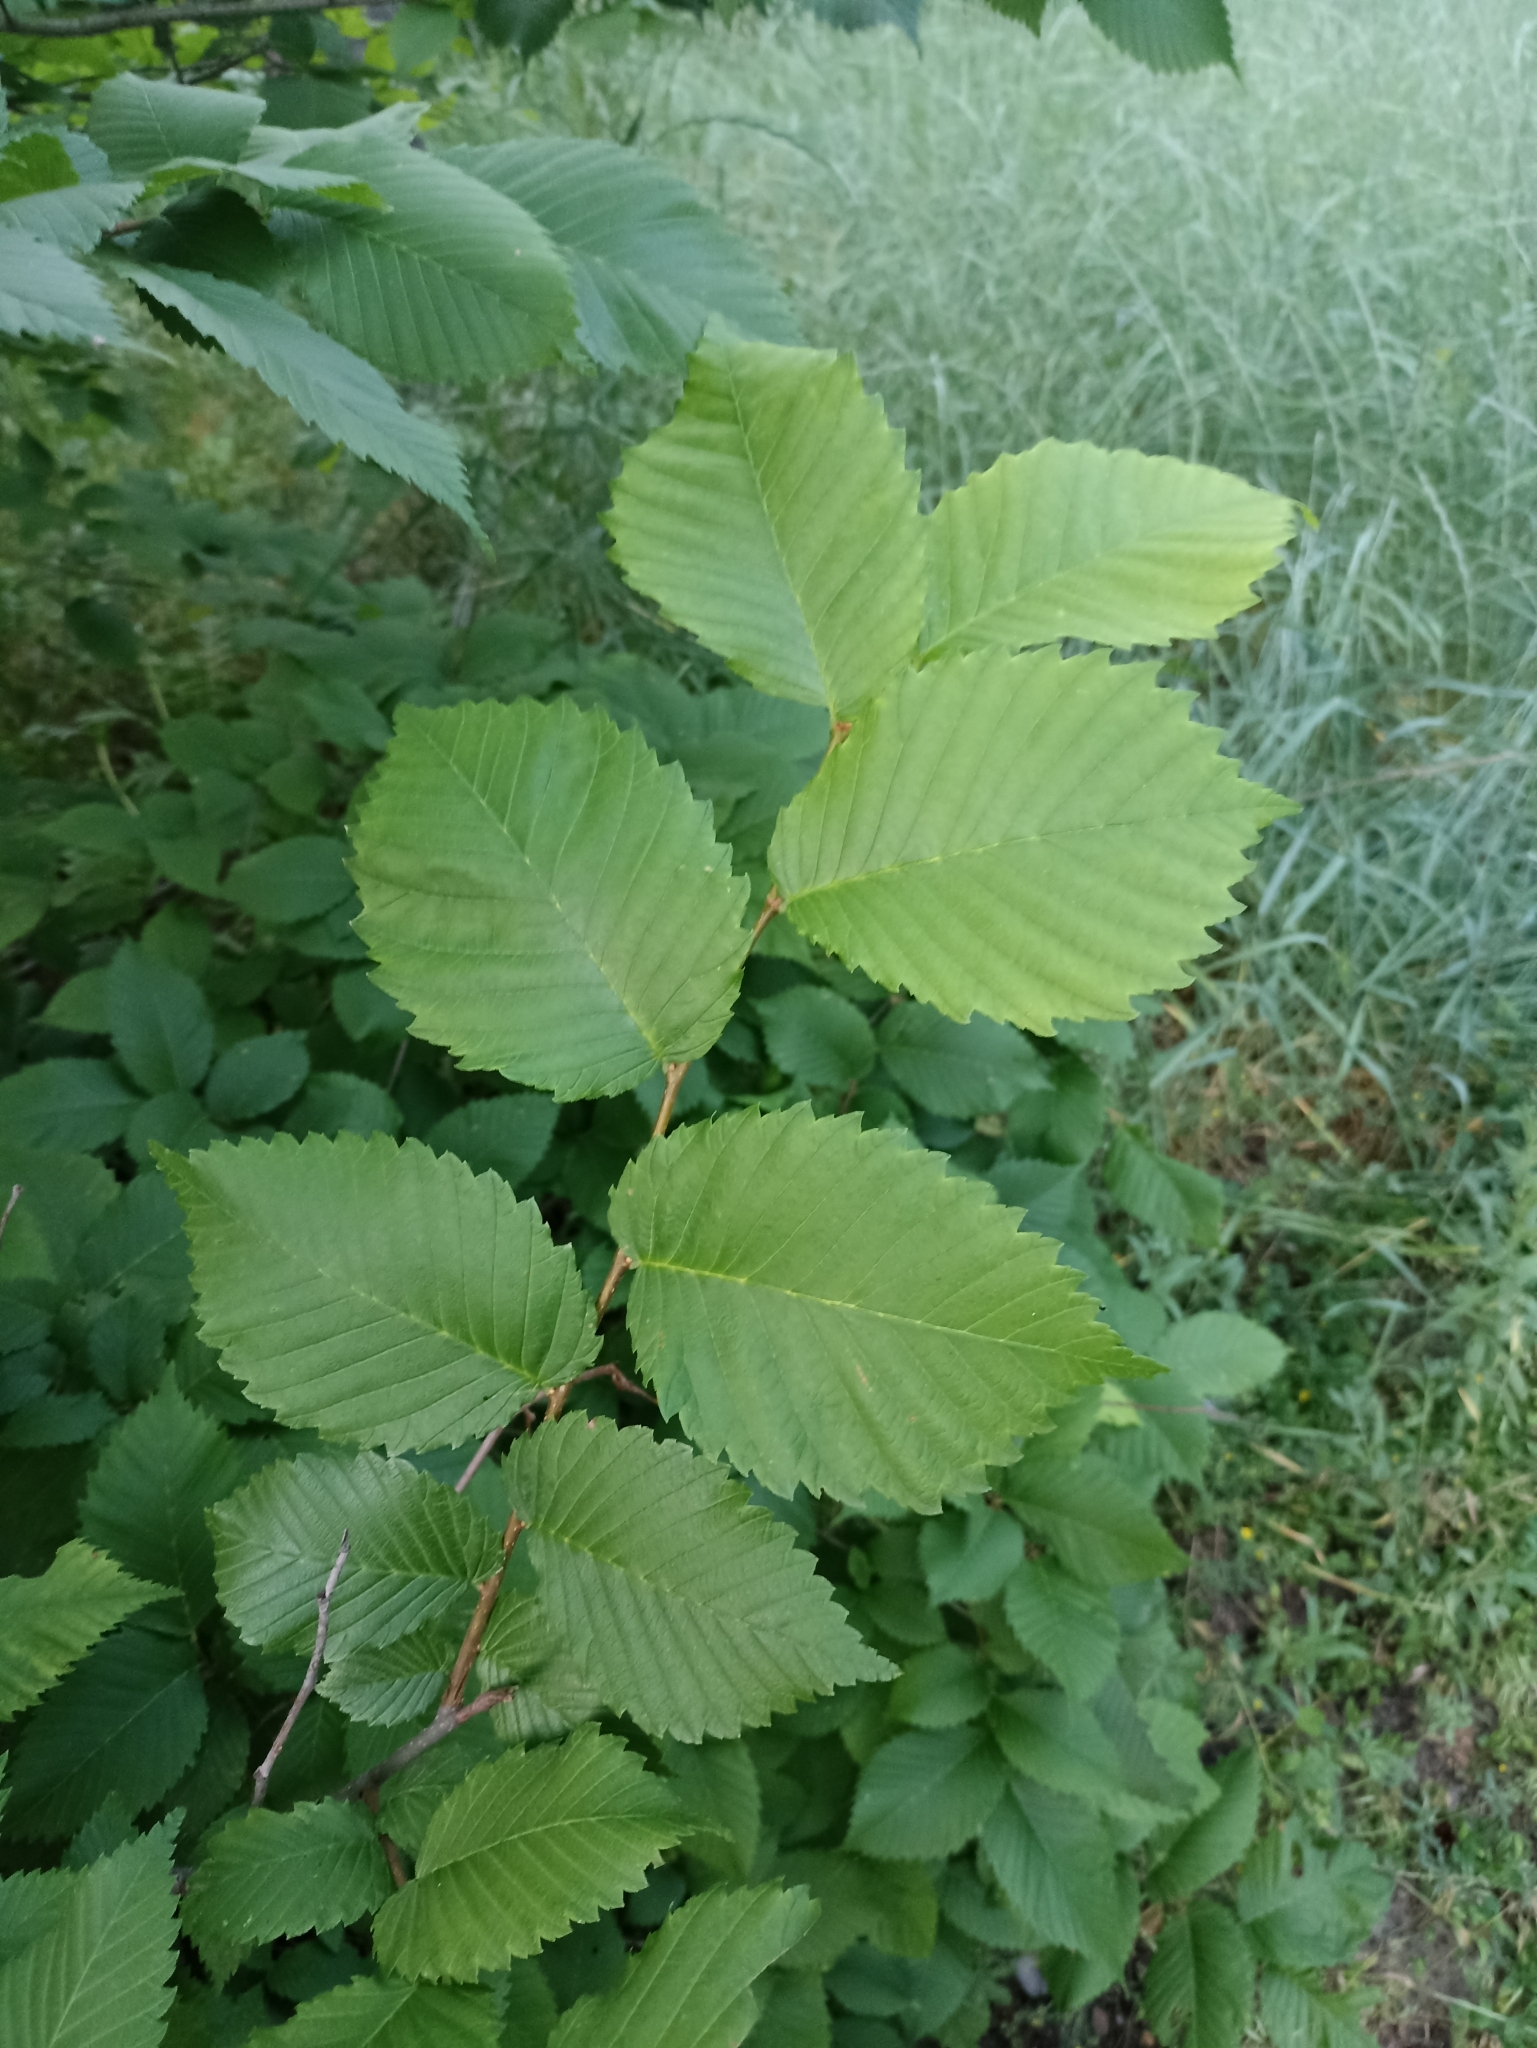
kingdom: Plantae
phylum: Tracheophyta
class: Magnoliopsida
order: Rosales
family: Ulmaceae
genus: Ulmus
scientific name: Ulmus laevis
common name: European white-elm
